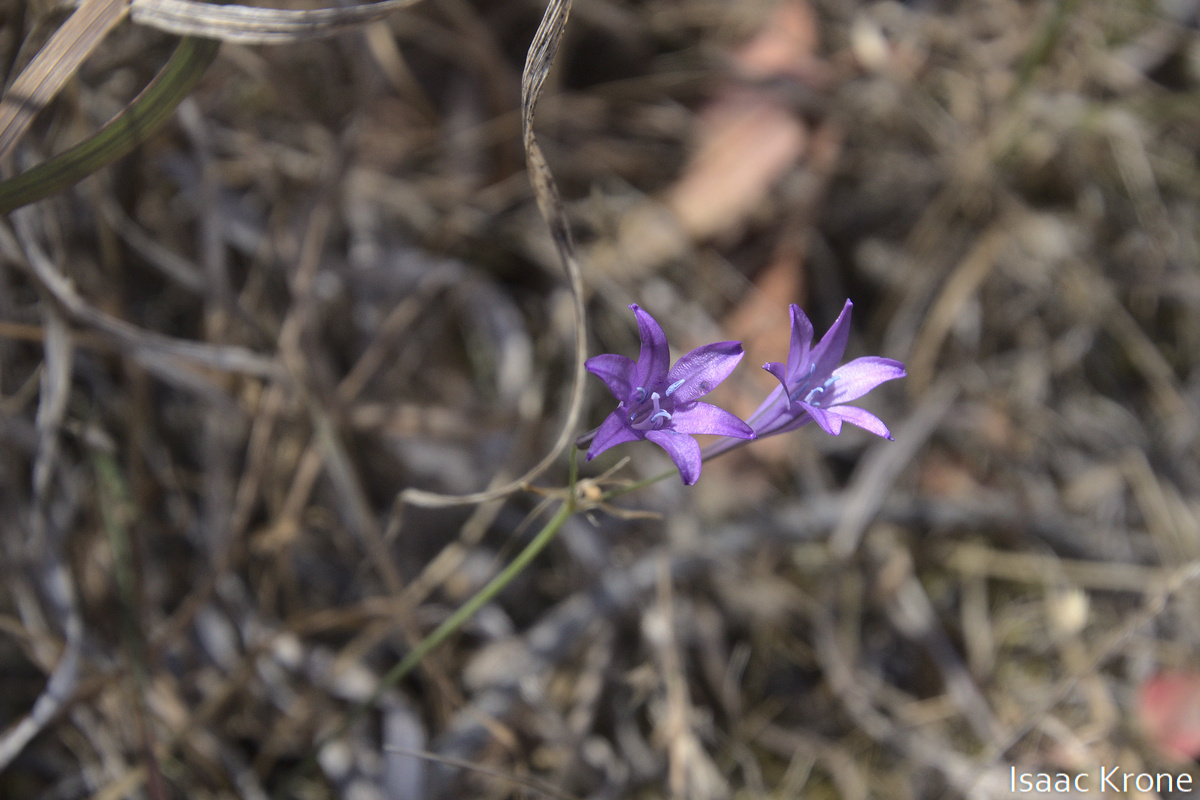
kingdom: Plantae
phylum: Tracheophyta
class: Liliopsida
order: Asparagales
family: Asparagaceae
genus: Triteleia
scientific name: Triteleia laxa
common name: Triplet-lily
